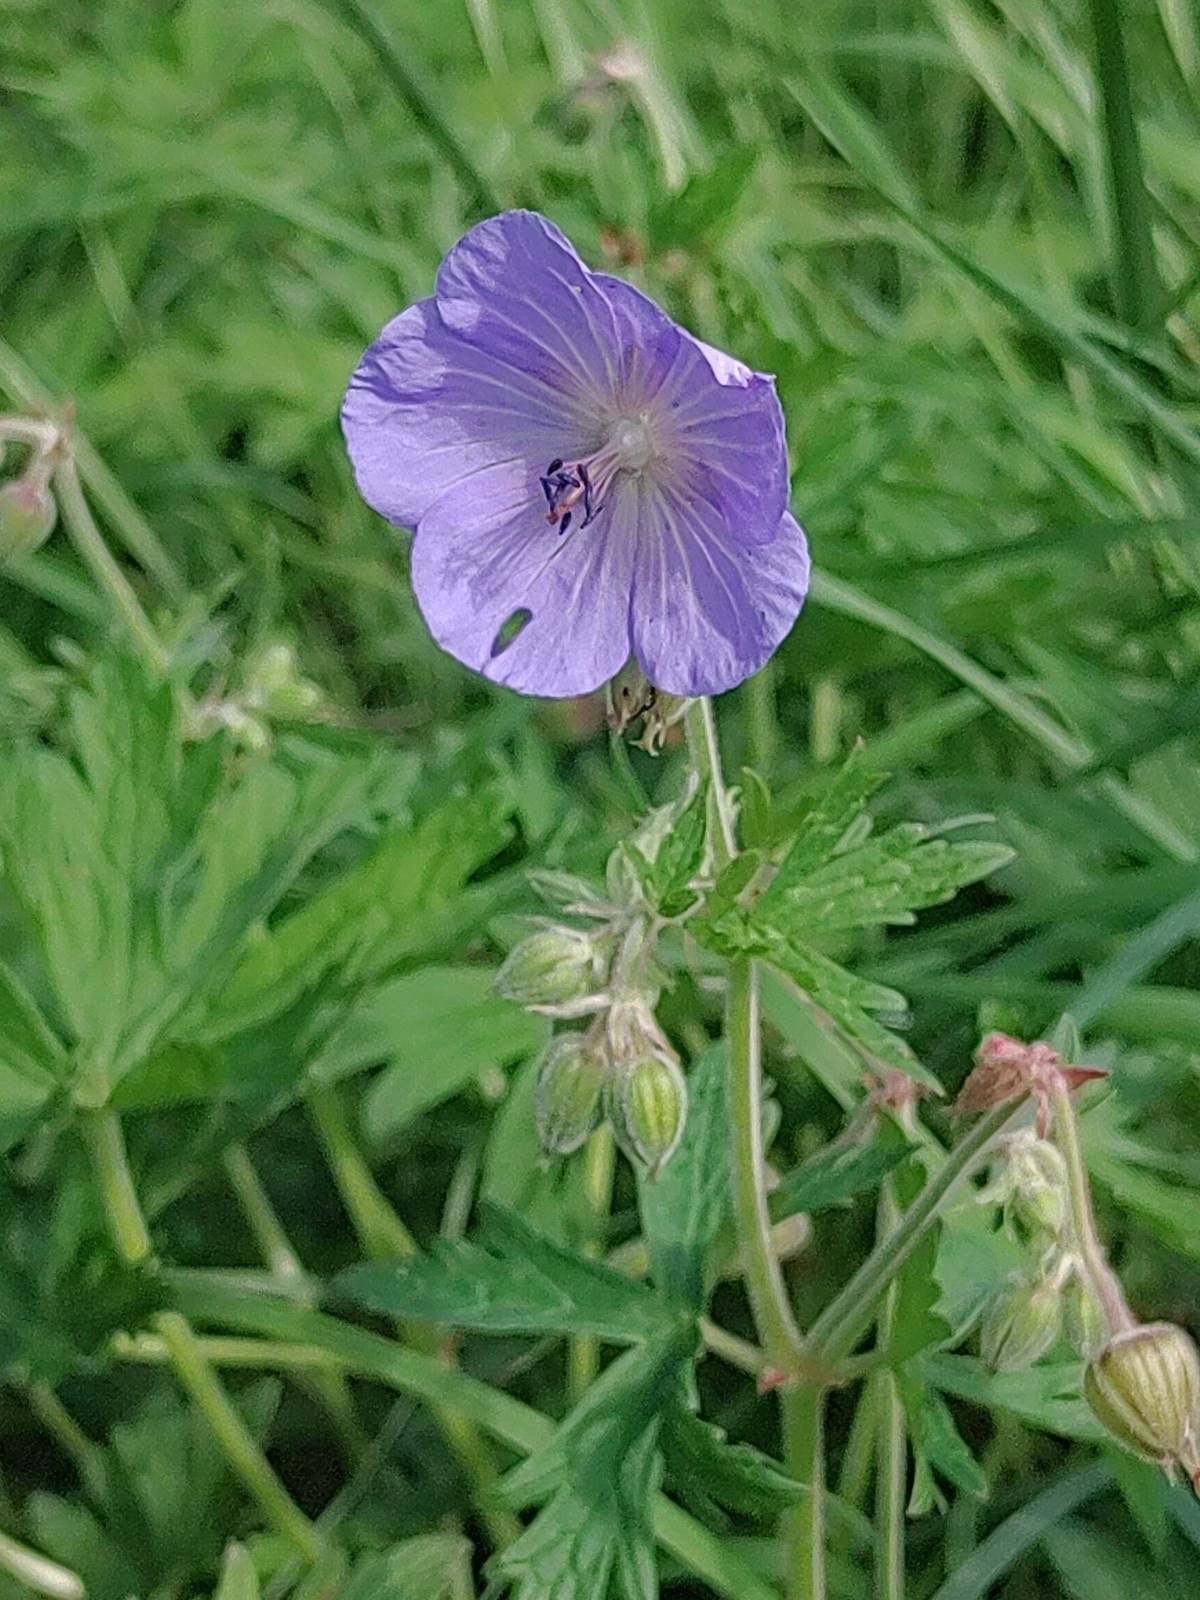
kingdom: Plantae
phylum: Tracheophyta
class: Magnoliopsida
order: Geraniales
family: Geraniaceae
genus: Geranium
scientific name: Geranium pratense
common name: Meadow crane's-bill
